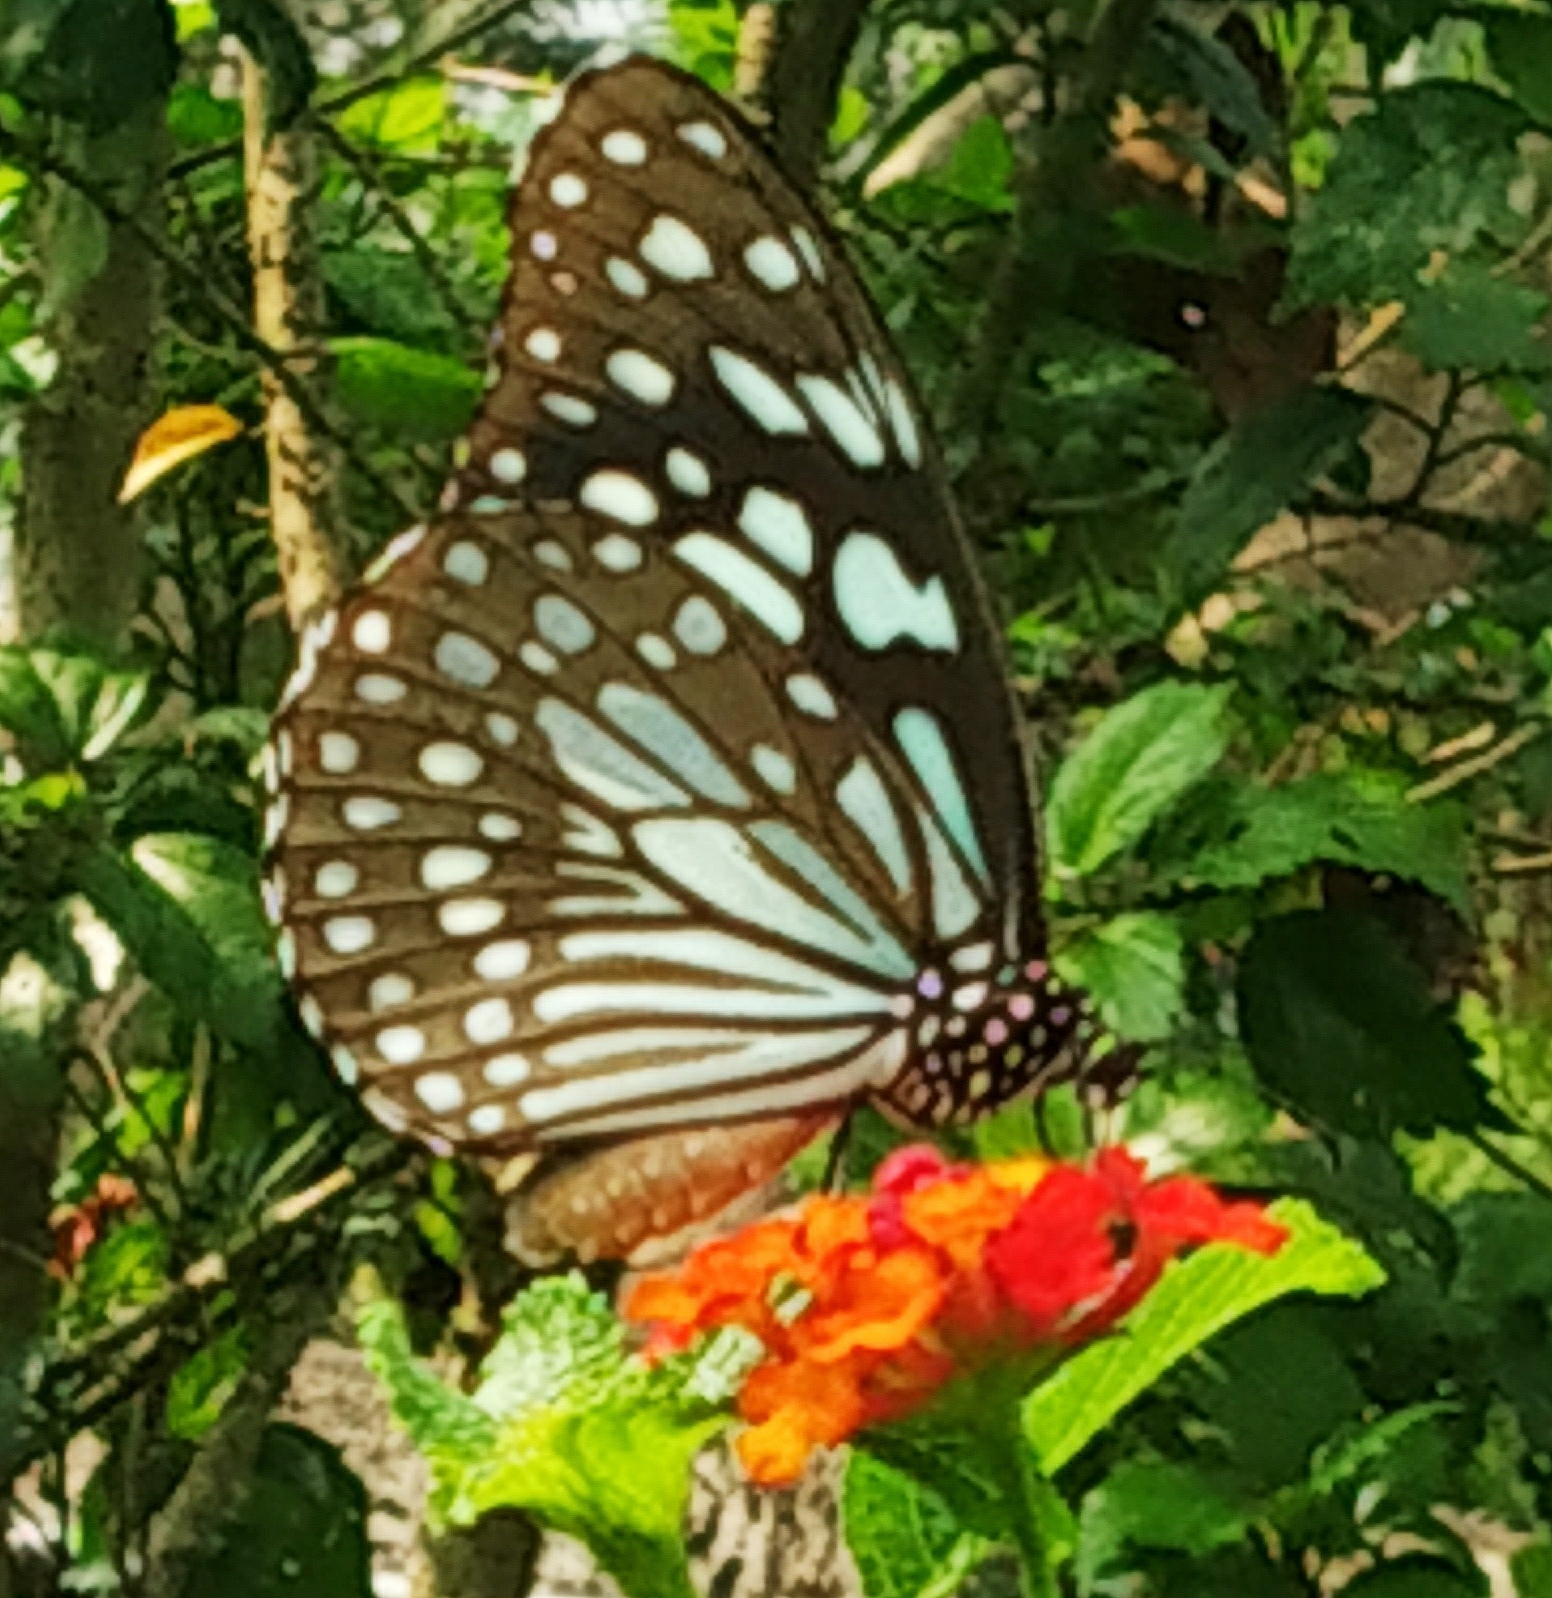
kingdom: Animalia
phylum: Arthropoda
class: Insecta
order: Lepidoptera
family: Nymphalidae
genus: Tirumala
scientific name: Tirumala limniace
